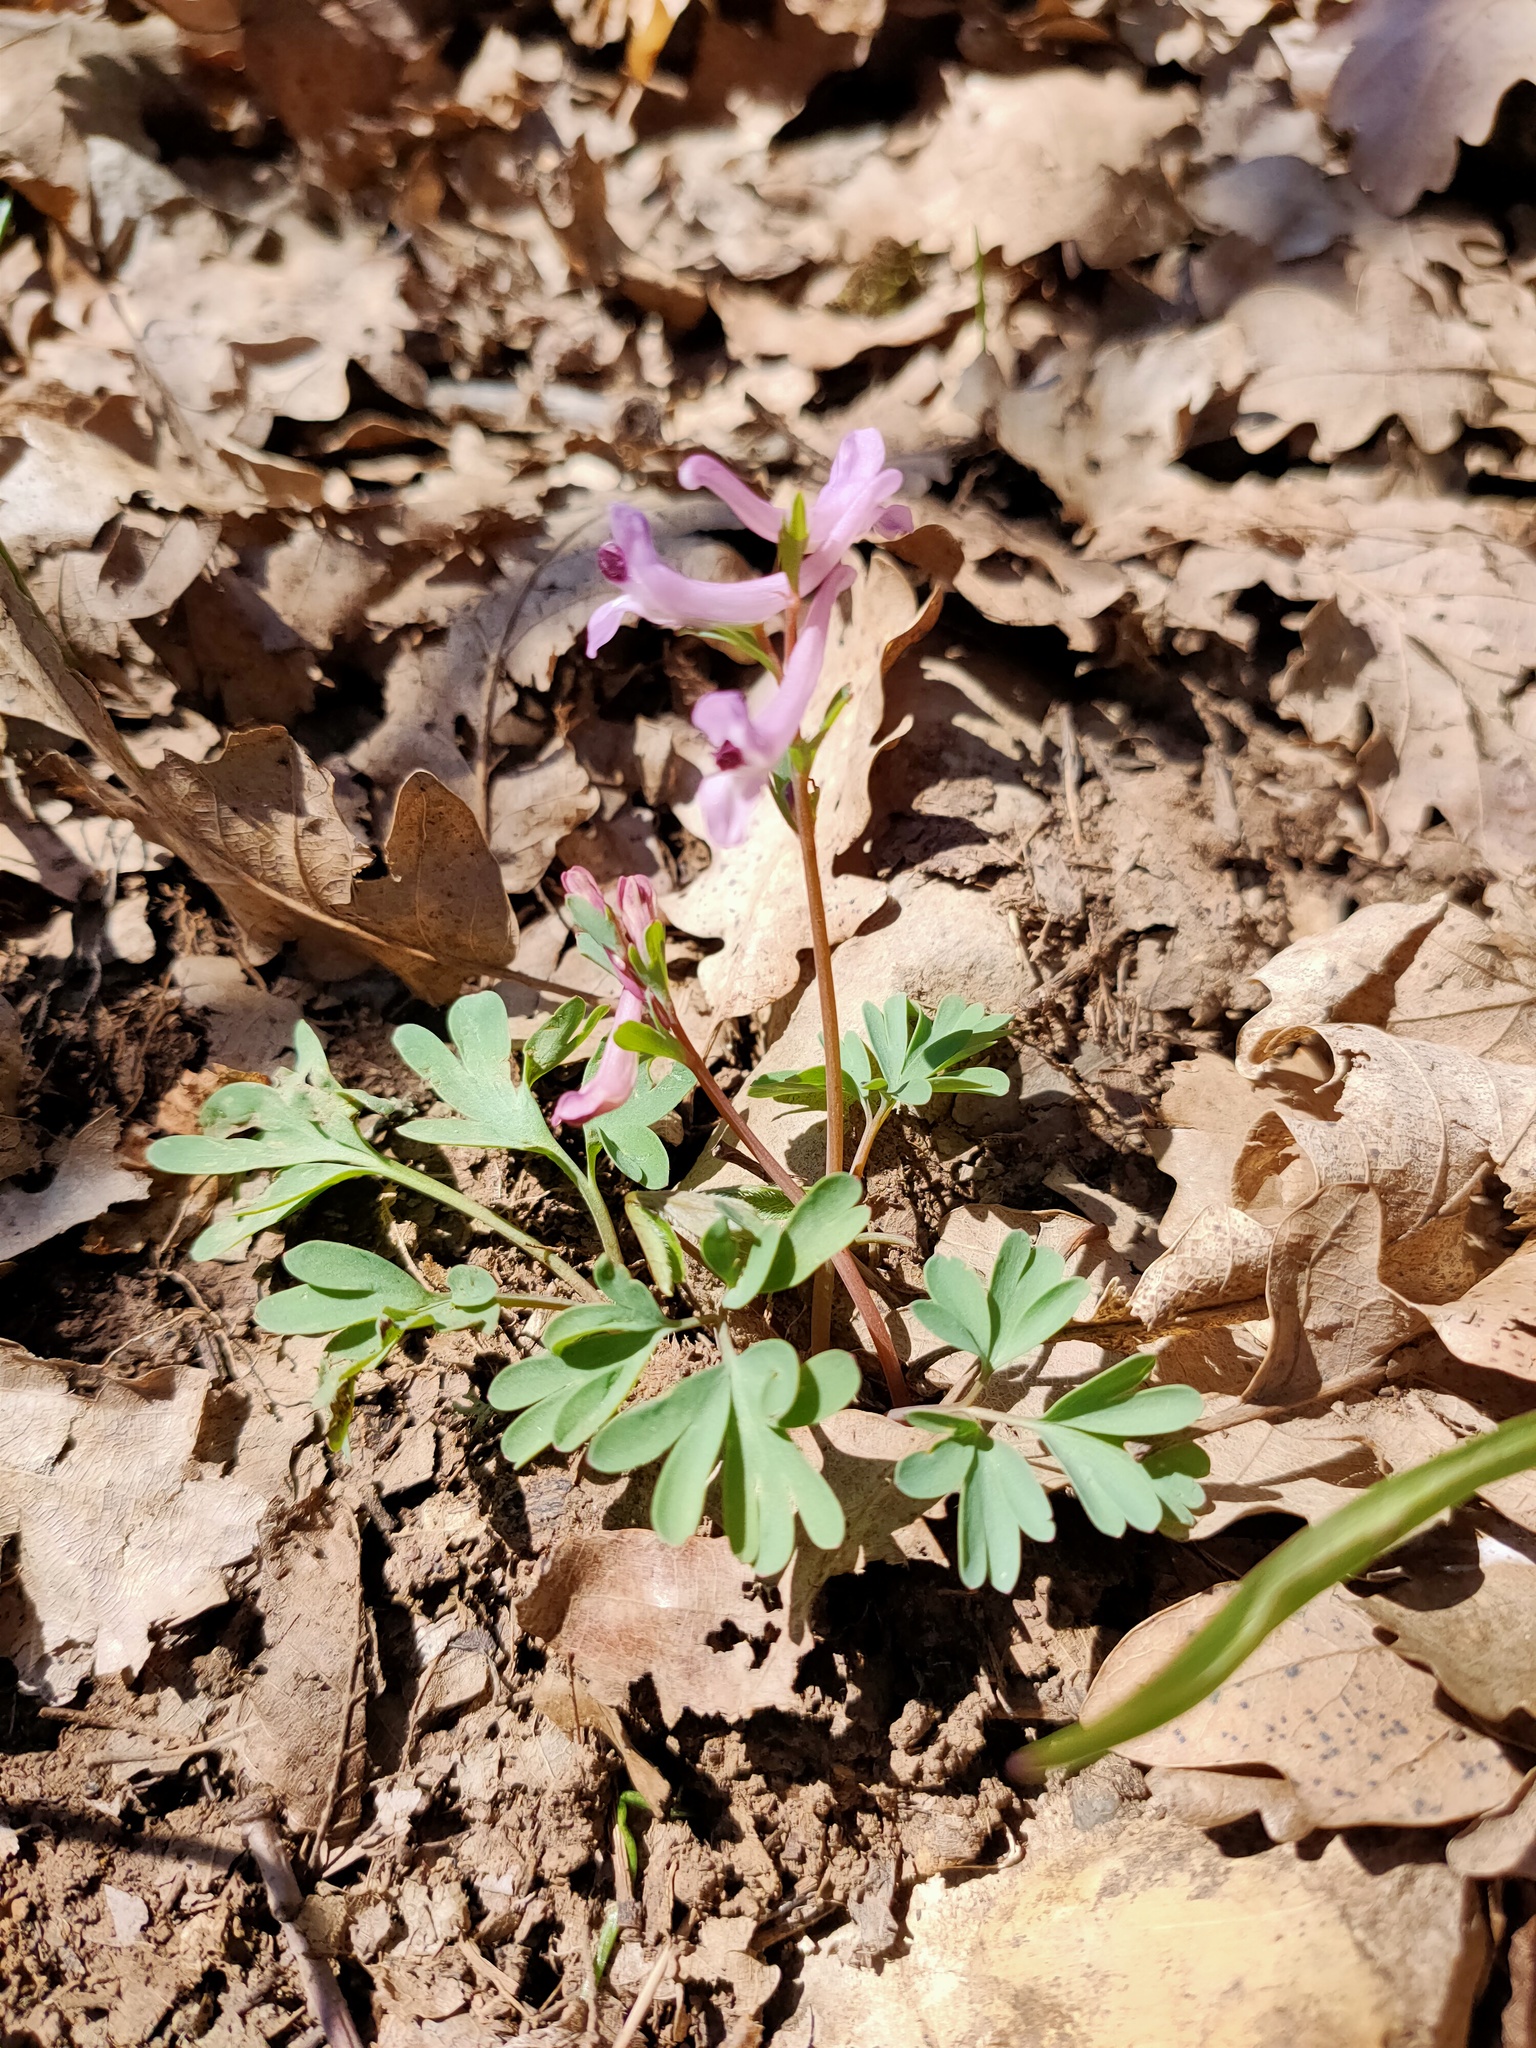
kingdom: Plantae
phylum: Tracheophyta
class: Magnoliopsida
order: Ranunculales
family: Papaveraceae
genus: Corydalis
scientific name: Corydalis paczoskii
